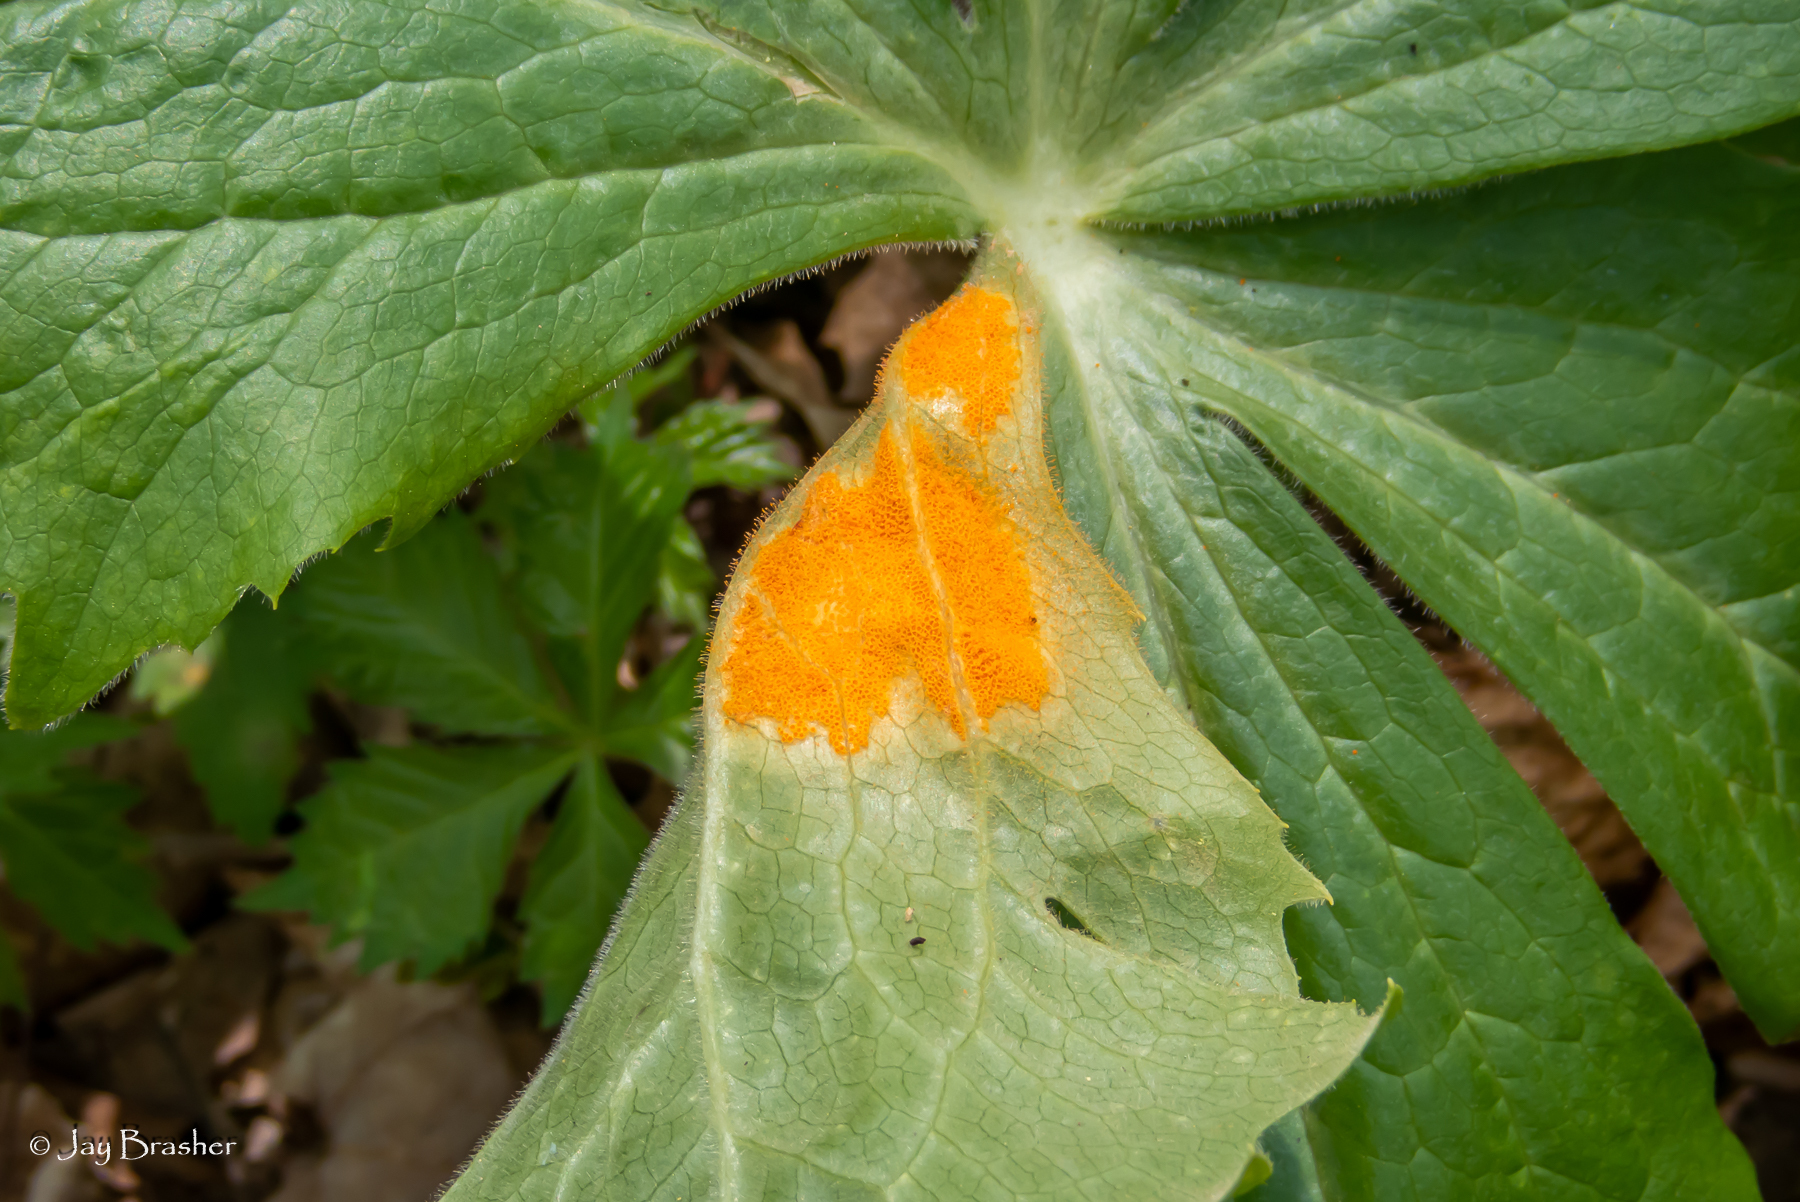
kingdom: Fungi
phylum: Basidiomycota
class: Pucciniomycetes
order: Pucciniales
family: Pucciniaceae
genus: Puccinia
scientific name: Puccinia podophylli
